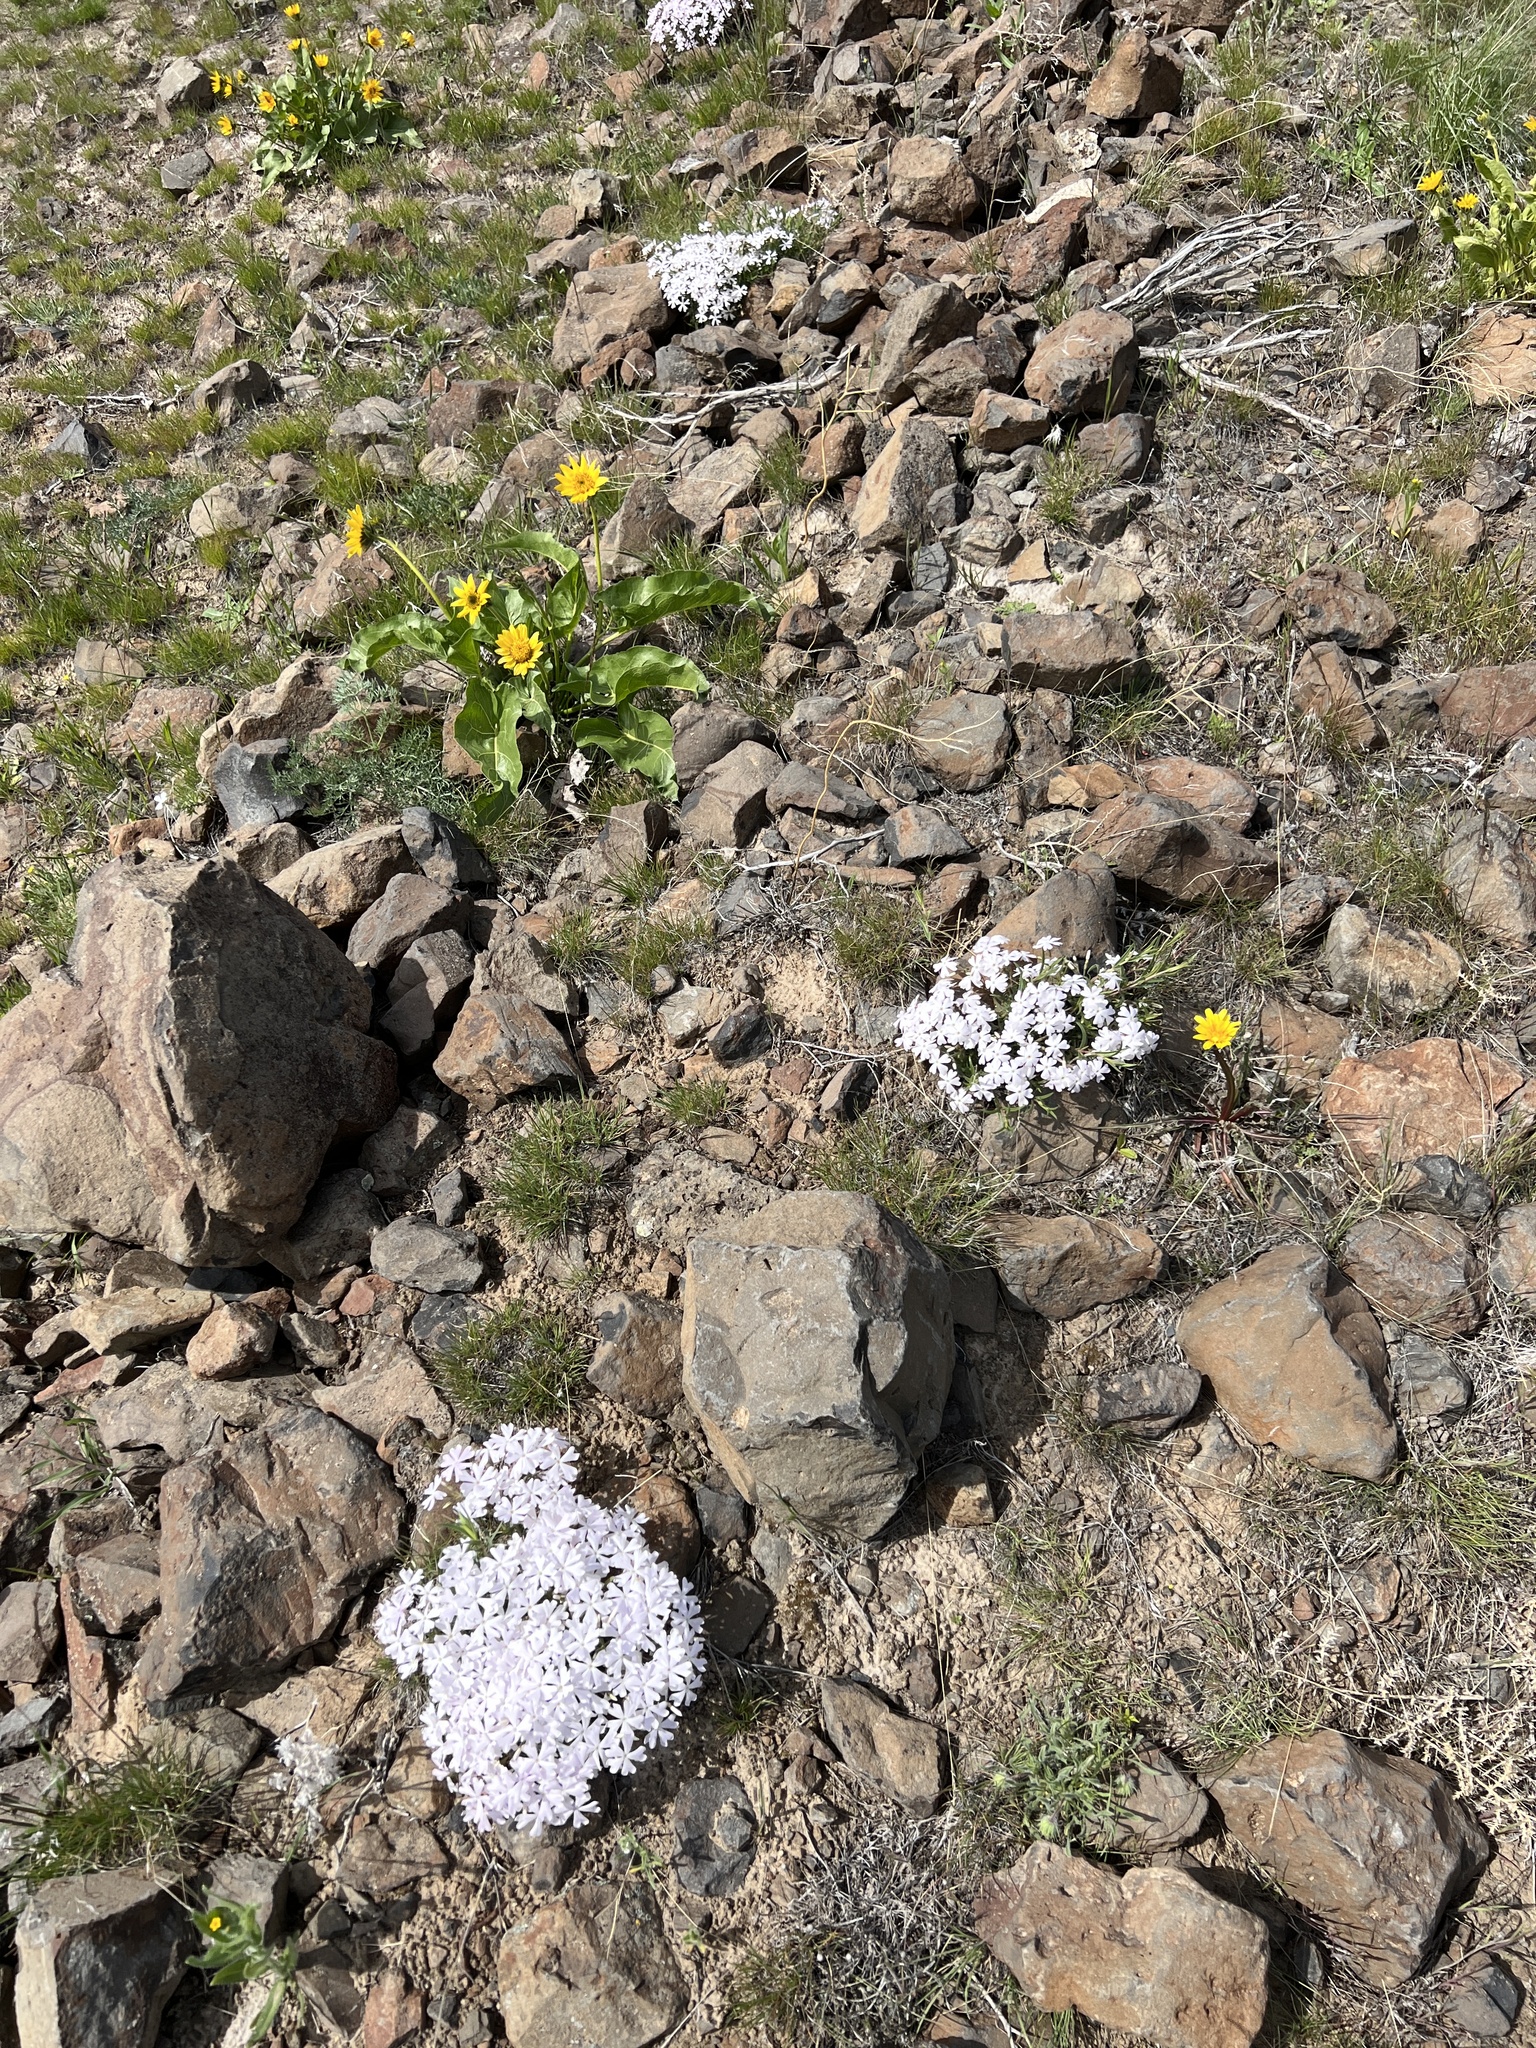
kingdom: Plantae
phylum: Tracheophyta
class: Magnoliopsida
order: Ericales
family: Polemoniaceae
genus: Phlox
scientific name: Phlox speciosa
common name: Bush phlox
